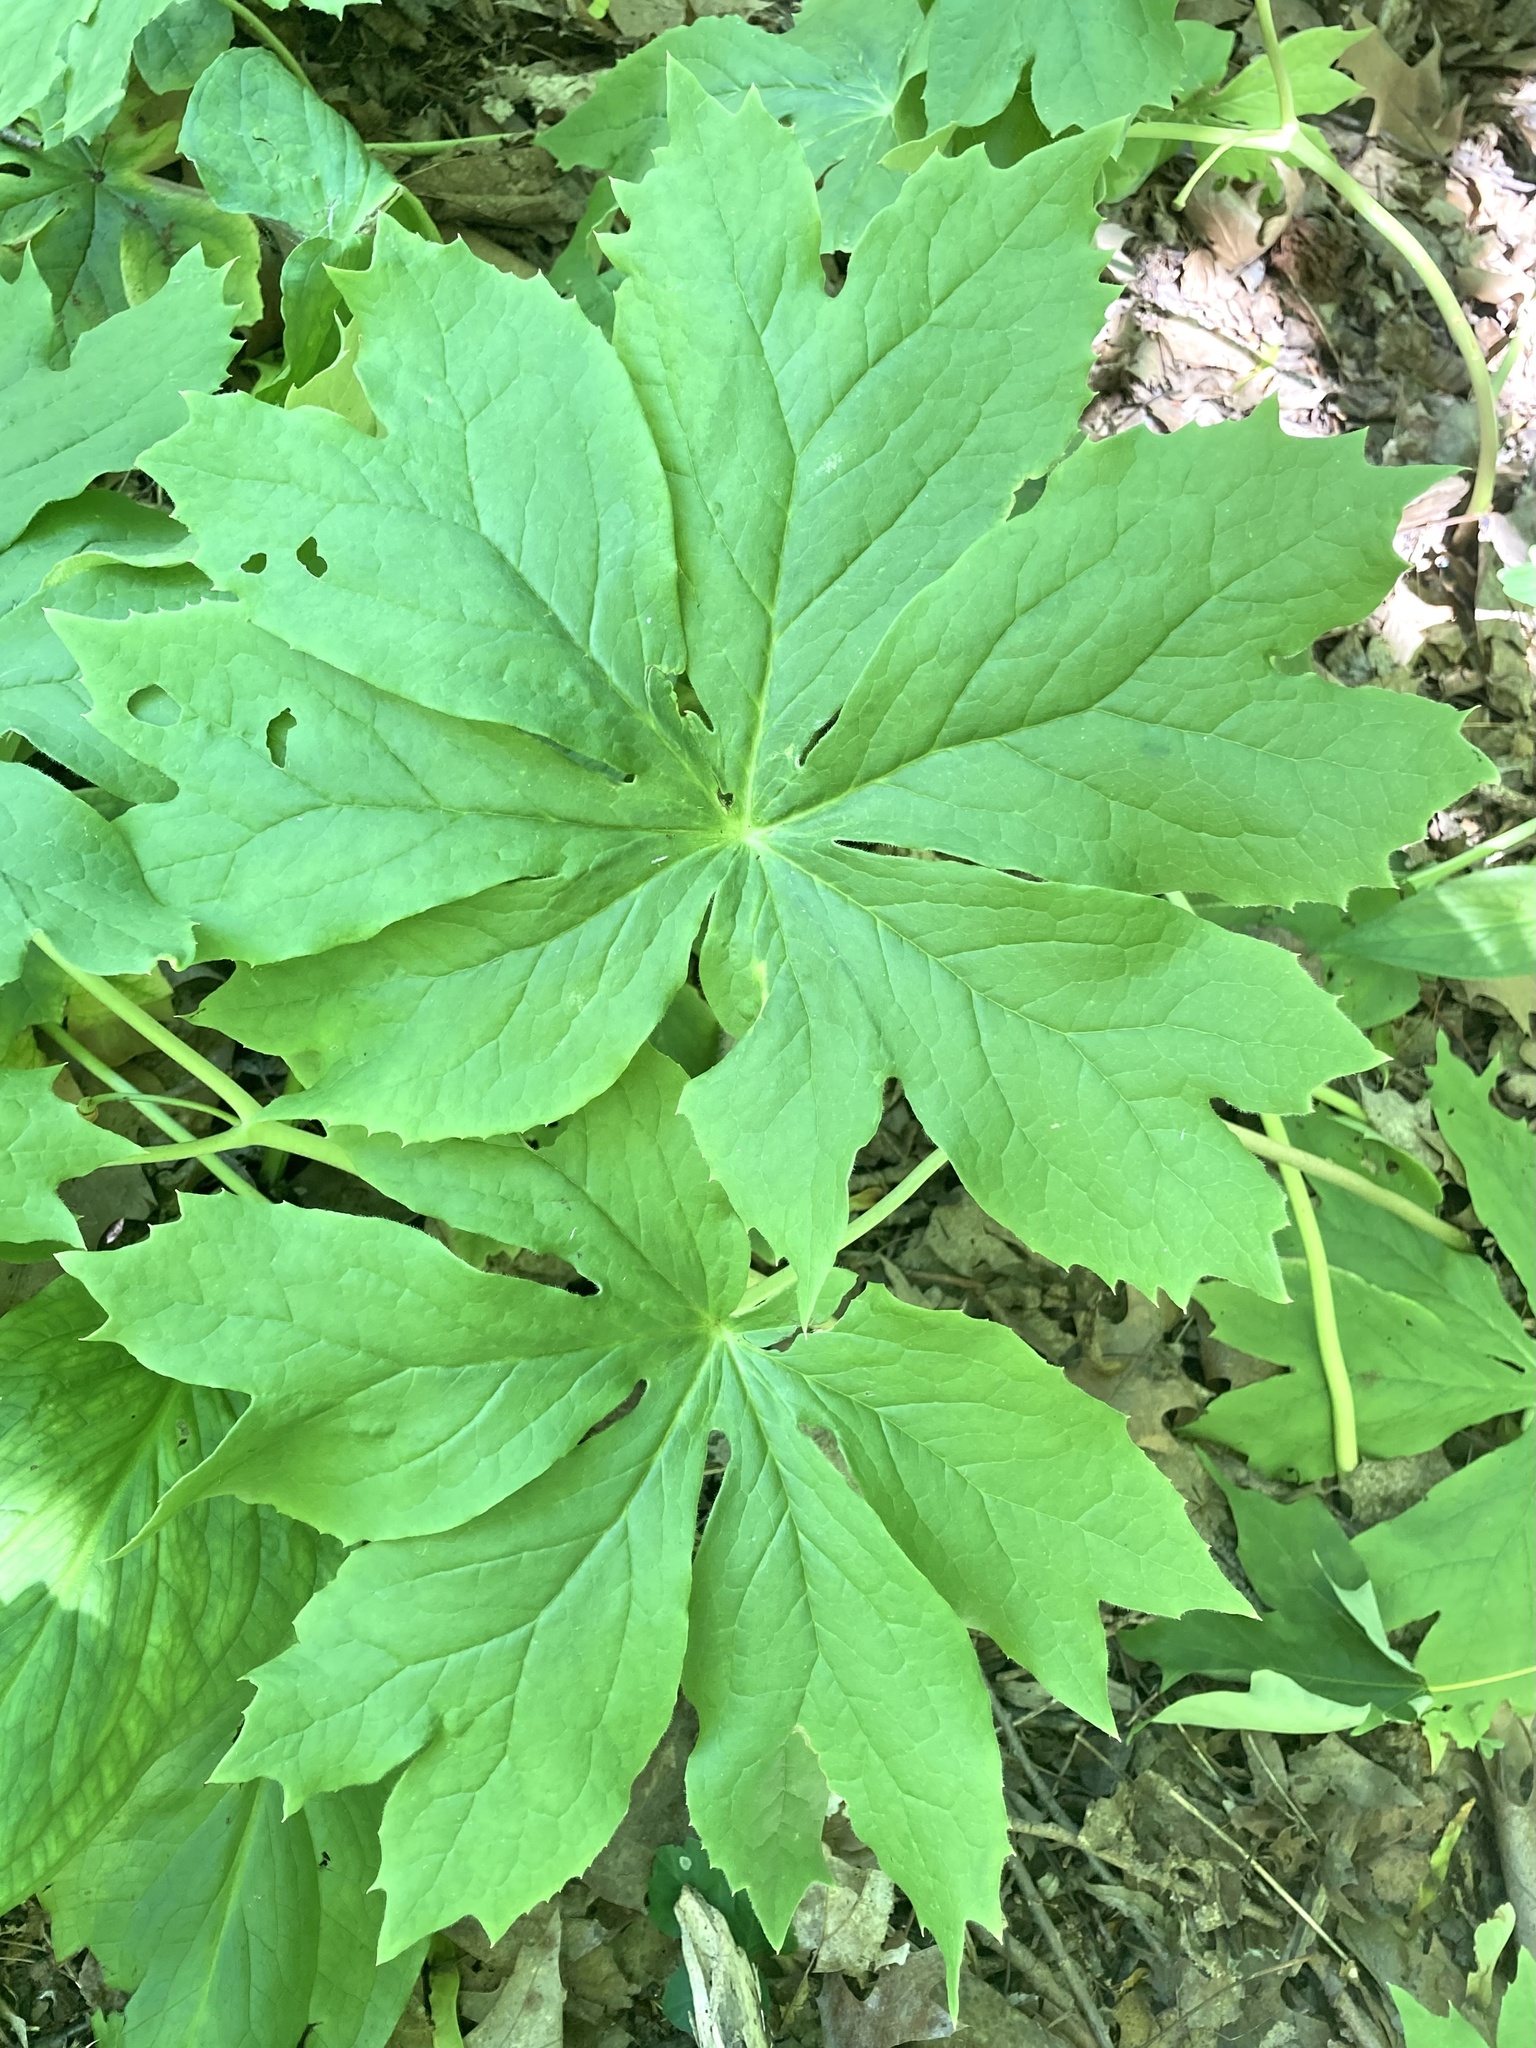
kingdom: Plantae
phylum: Tracheophyta
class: Magnoliopsida
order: Ranunculales
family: Berberidaceae
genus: Podophyllum
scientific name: Podophyllum peltatum
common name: Wild mandrake
